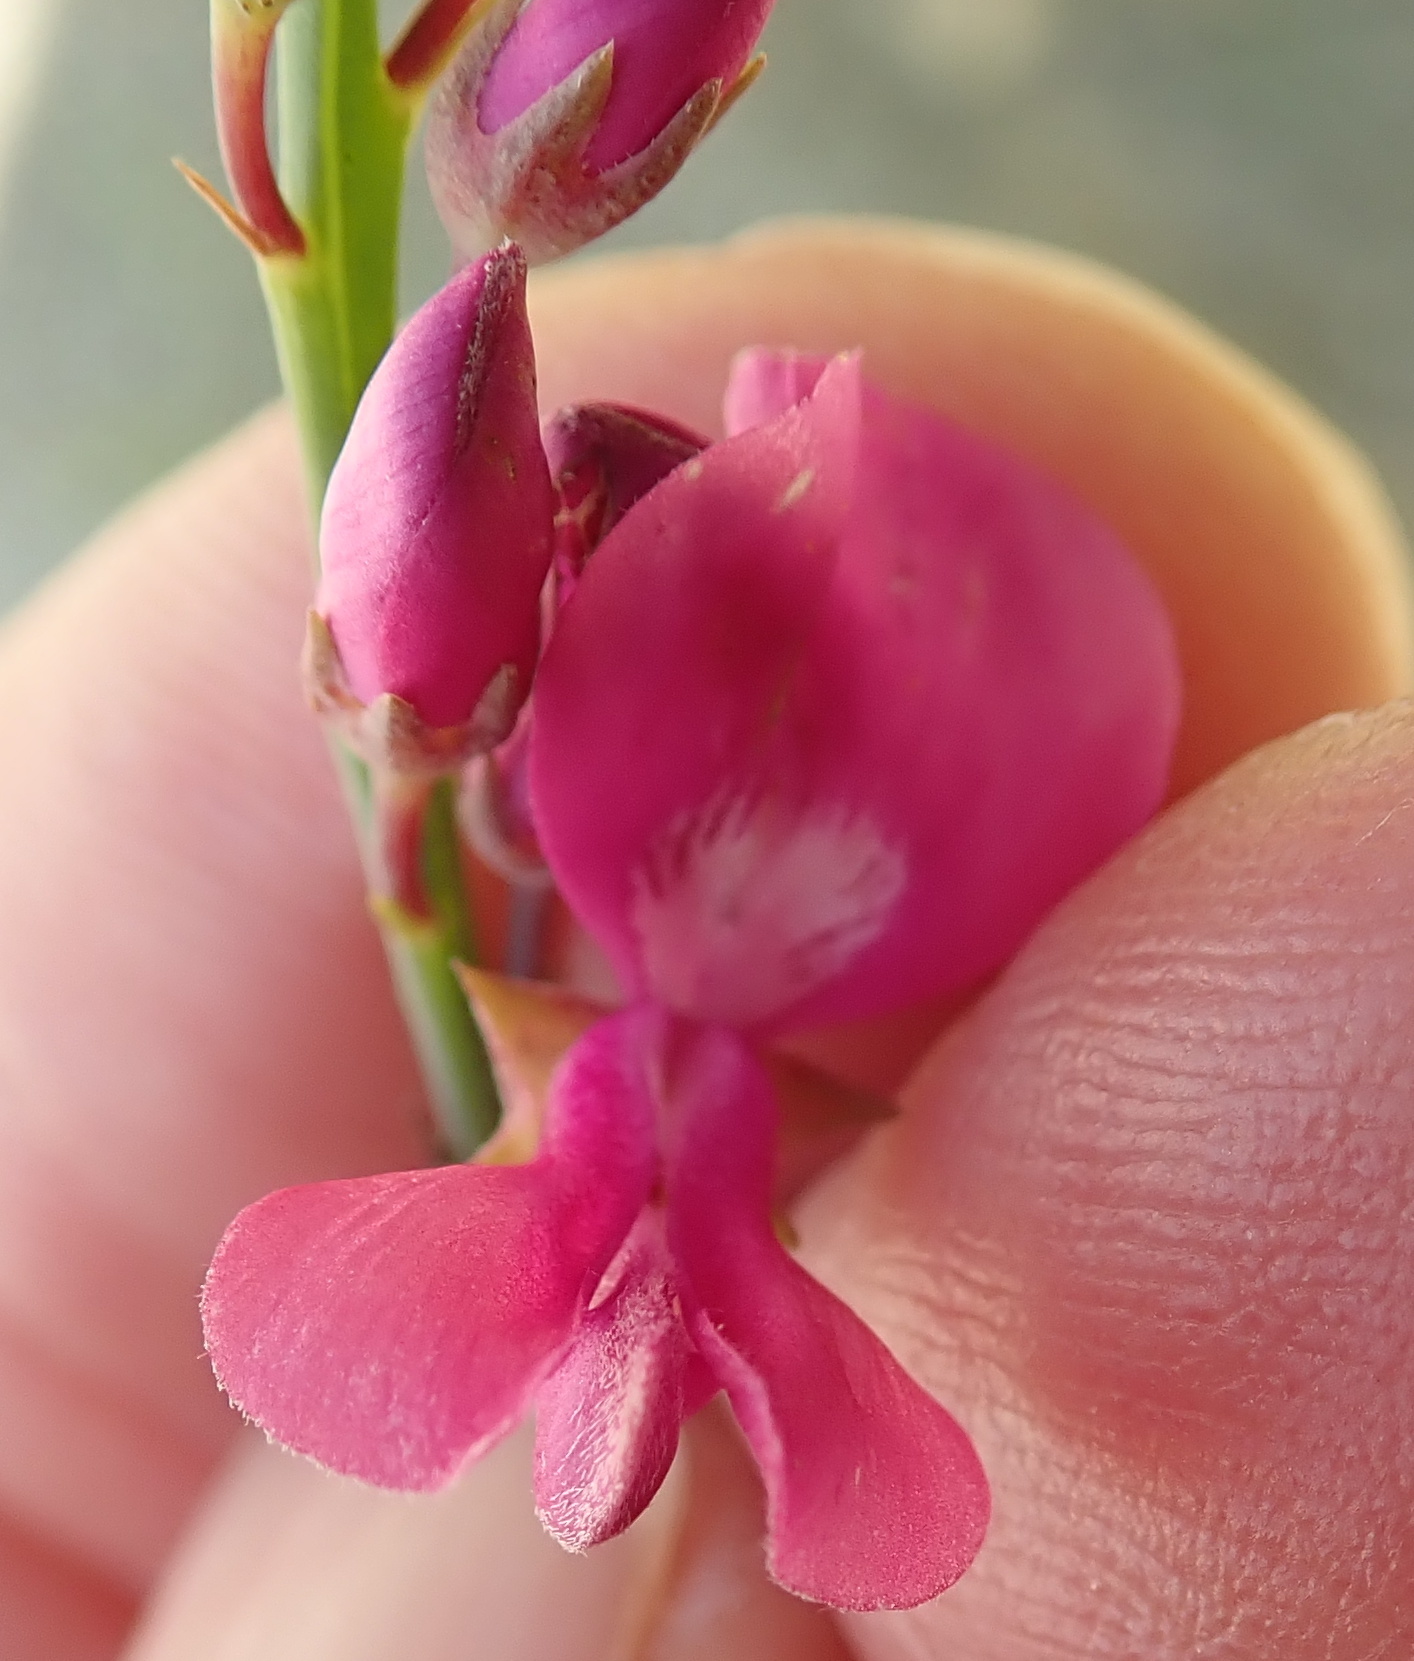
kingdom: Plantae
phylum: Tracheophyta
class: Magnoliopsida
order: Fabales
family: Fabaceae
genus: Indigofera
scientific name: Indigofera filifolia
